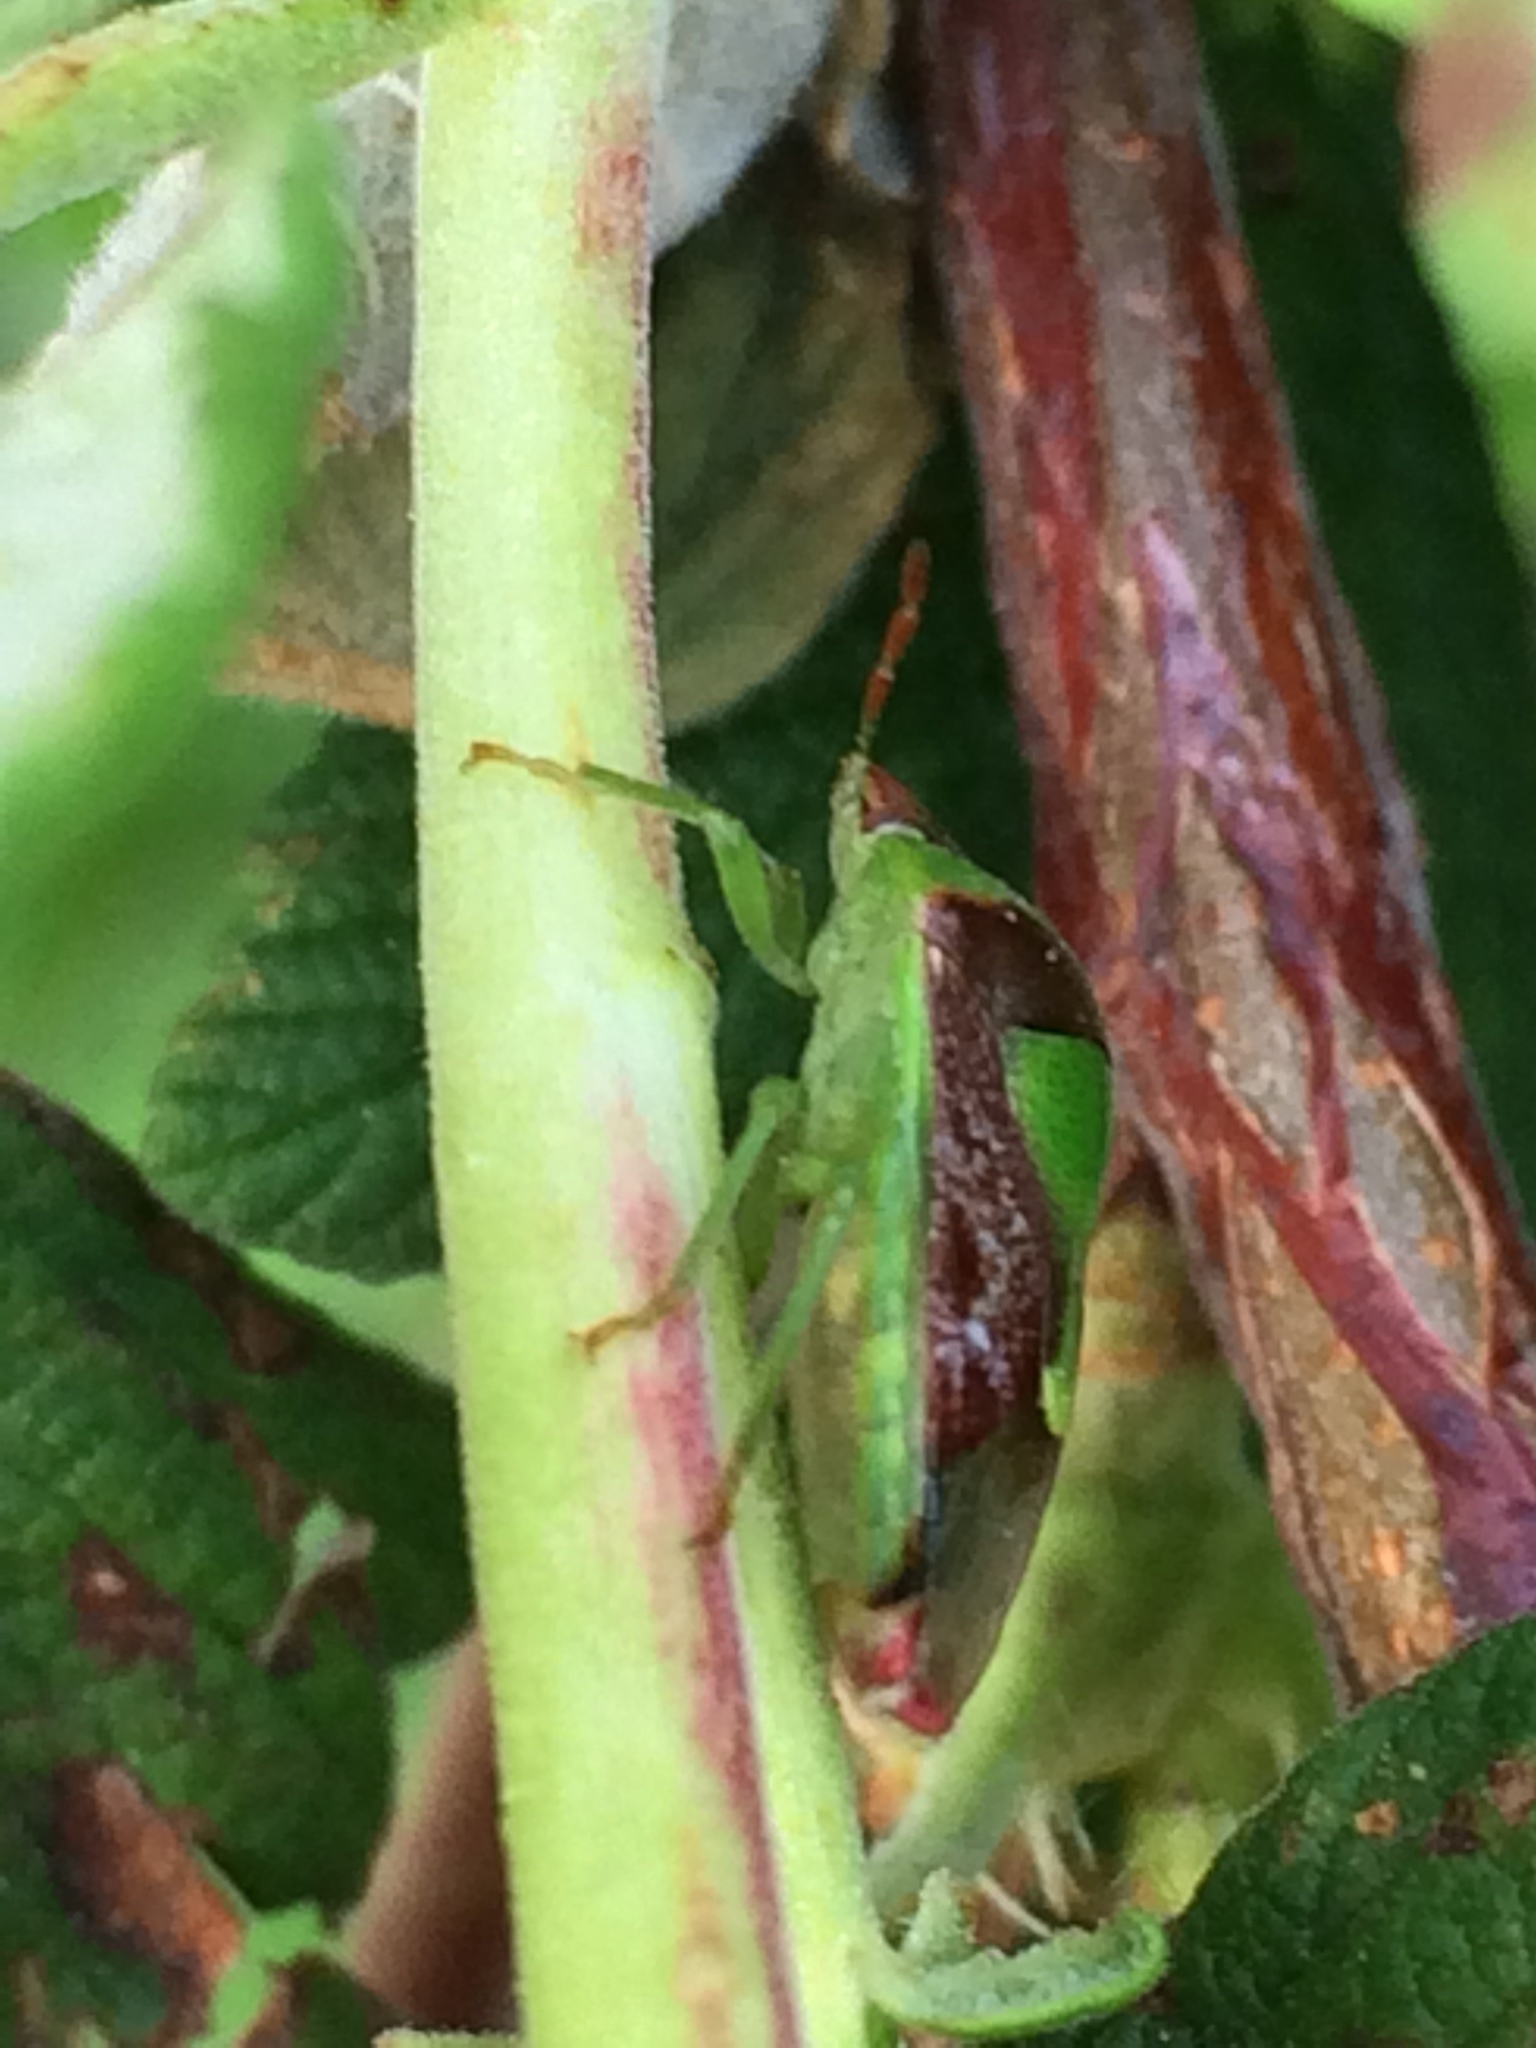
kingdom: Animalia
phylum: Arthropoda
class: Insecta
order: Hemiptera
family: Pentatomidae
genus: Banasa
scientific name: Banasa dimidiata
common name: Green burgundy stink bug
